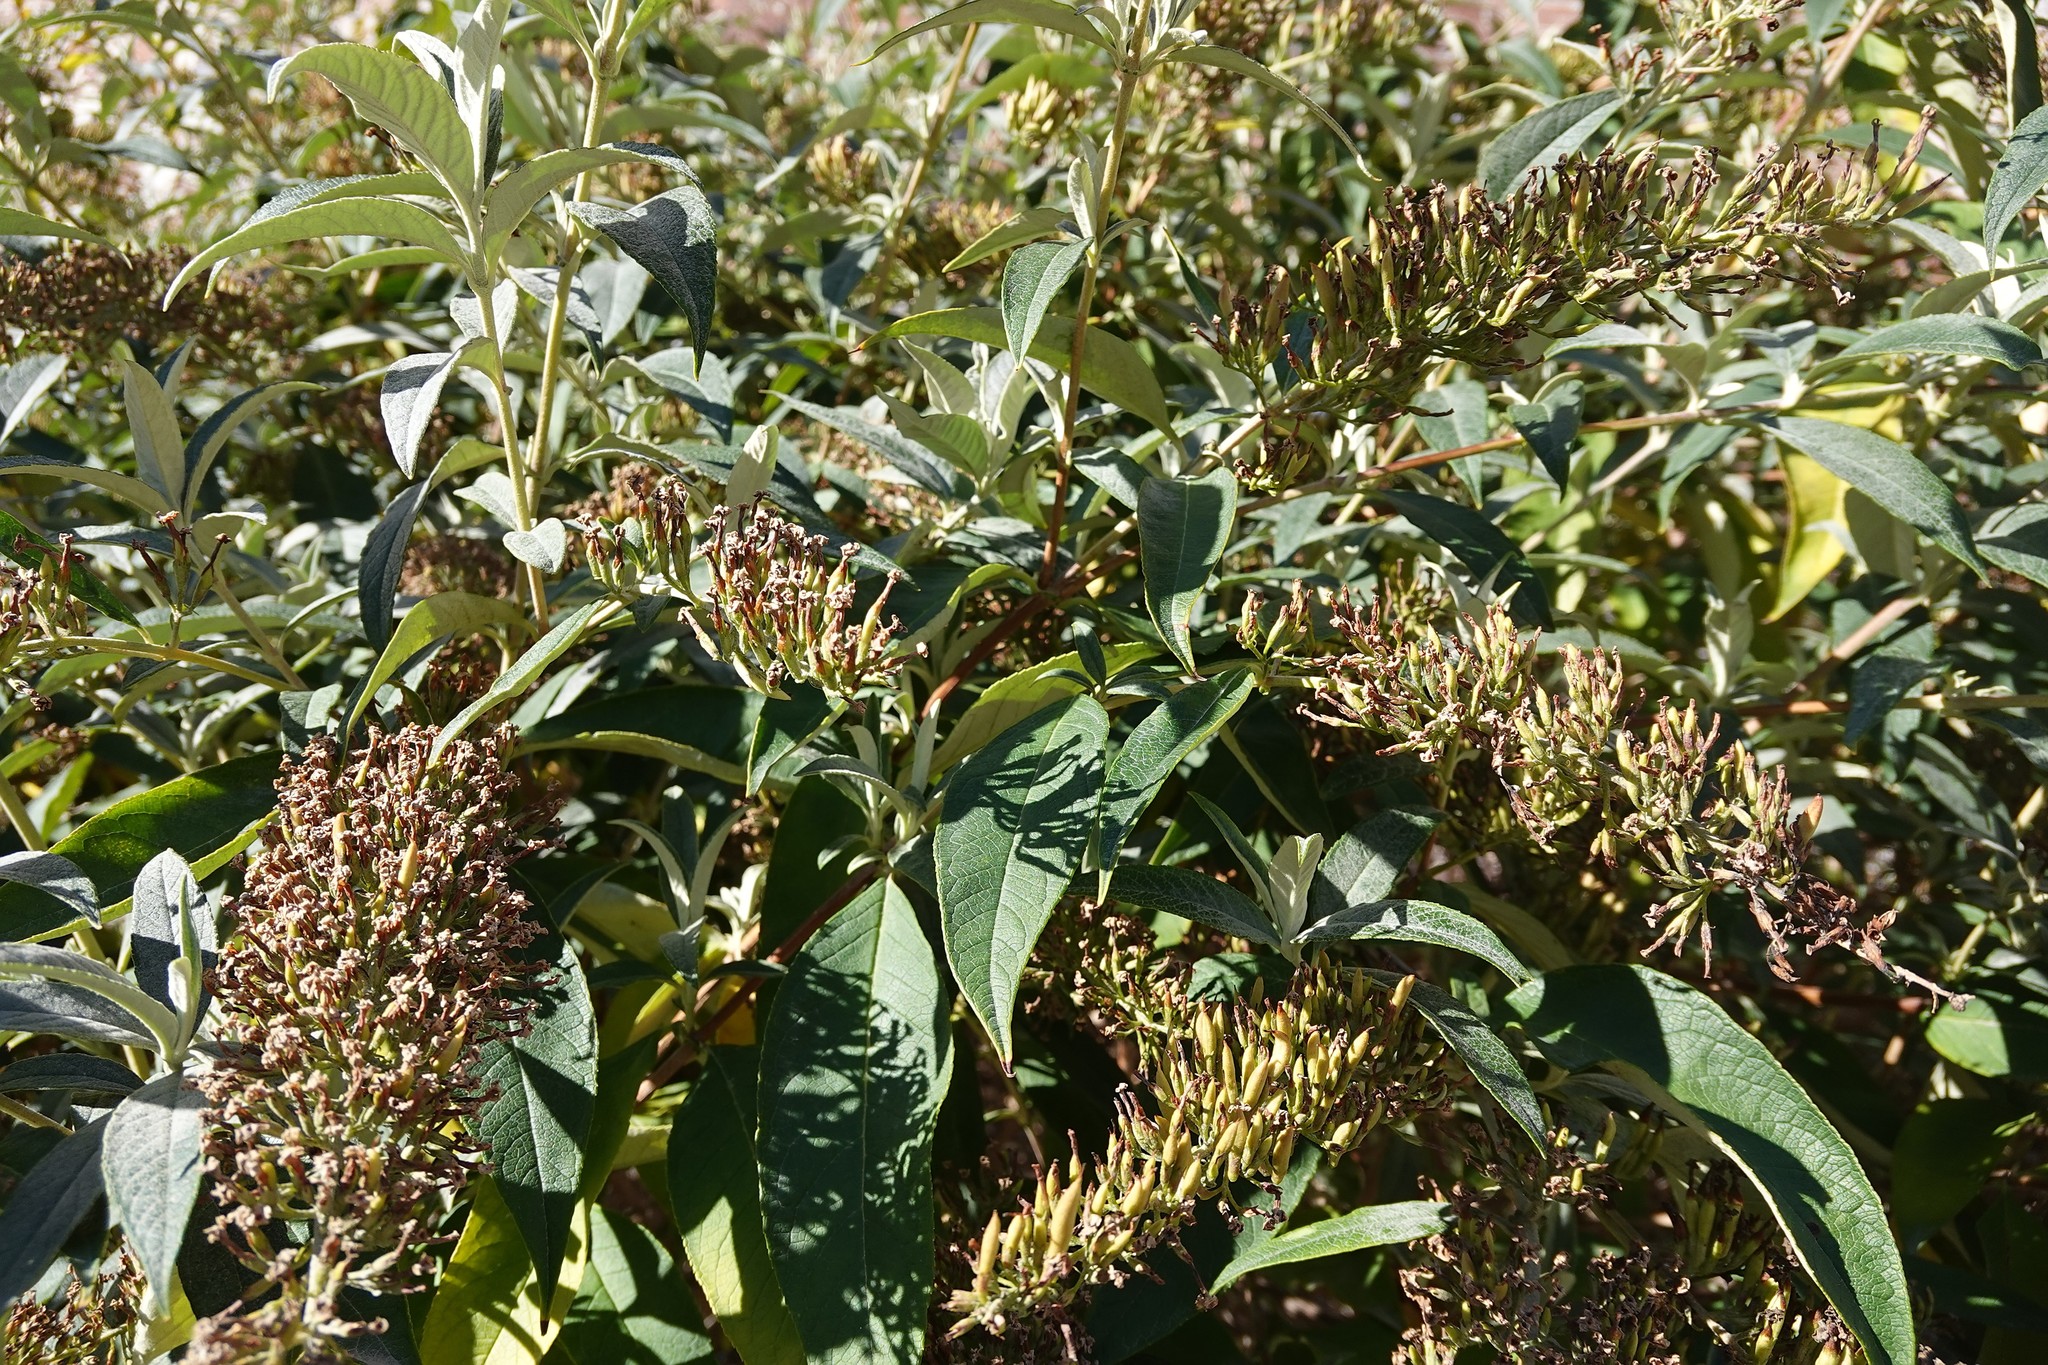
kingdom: Plantae
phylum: Tracheophyta
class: Magnoliopsida
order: Lamiales
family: Scrophulariaceae
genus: Buddleja
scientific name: Buddleja davidii
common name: Butterfly-bush
